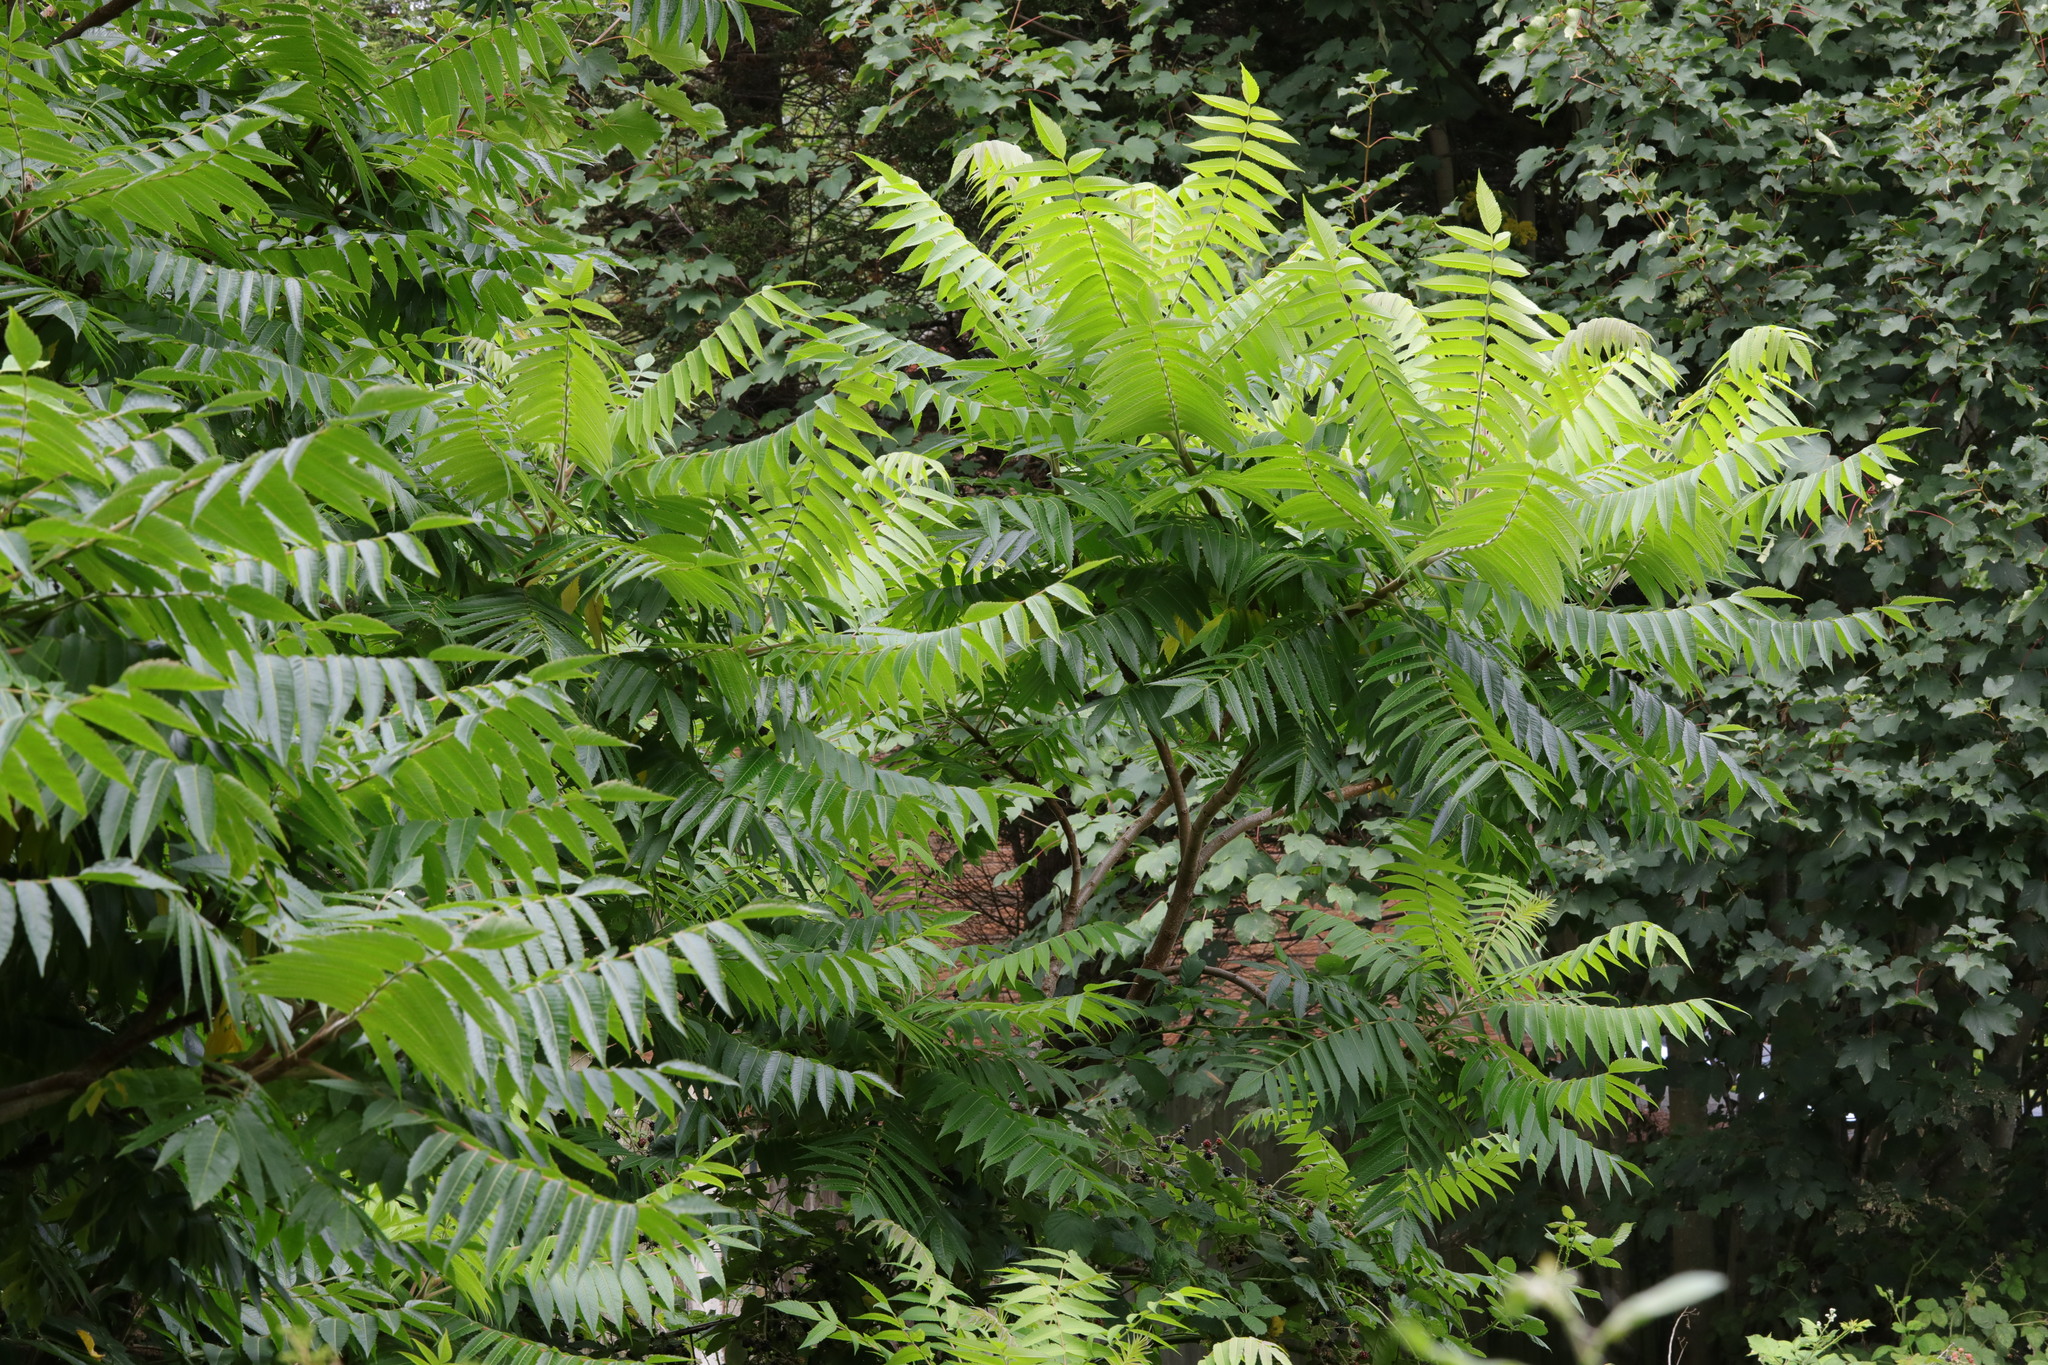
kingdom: Plantae
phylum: Tracheophyta
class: Magnoliopsida
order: Sapindales
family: Anacardiaceae
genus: Rhus
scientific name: Rhus typhina
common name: Staghorn sumac
